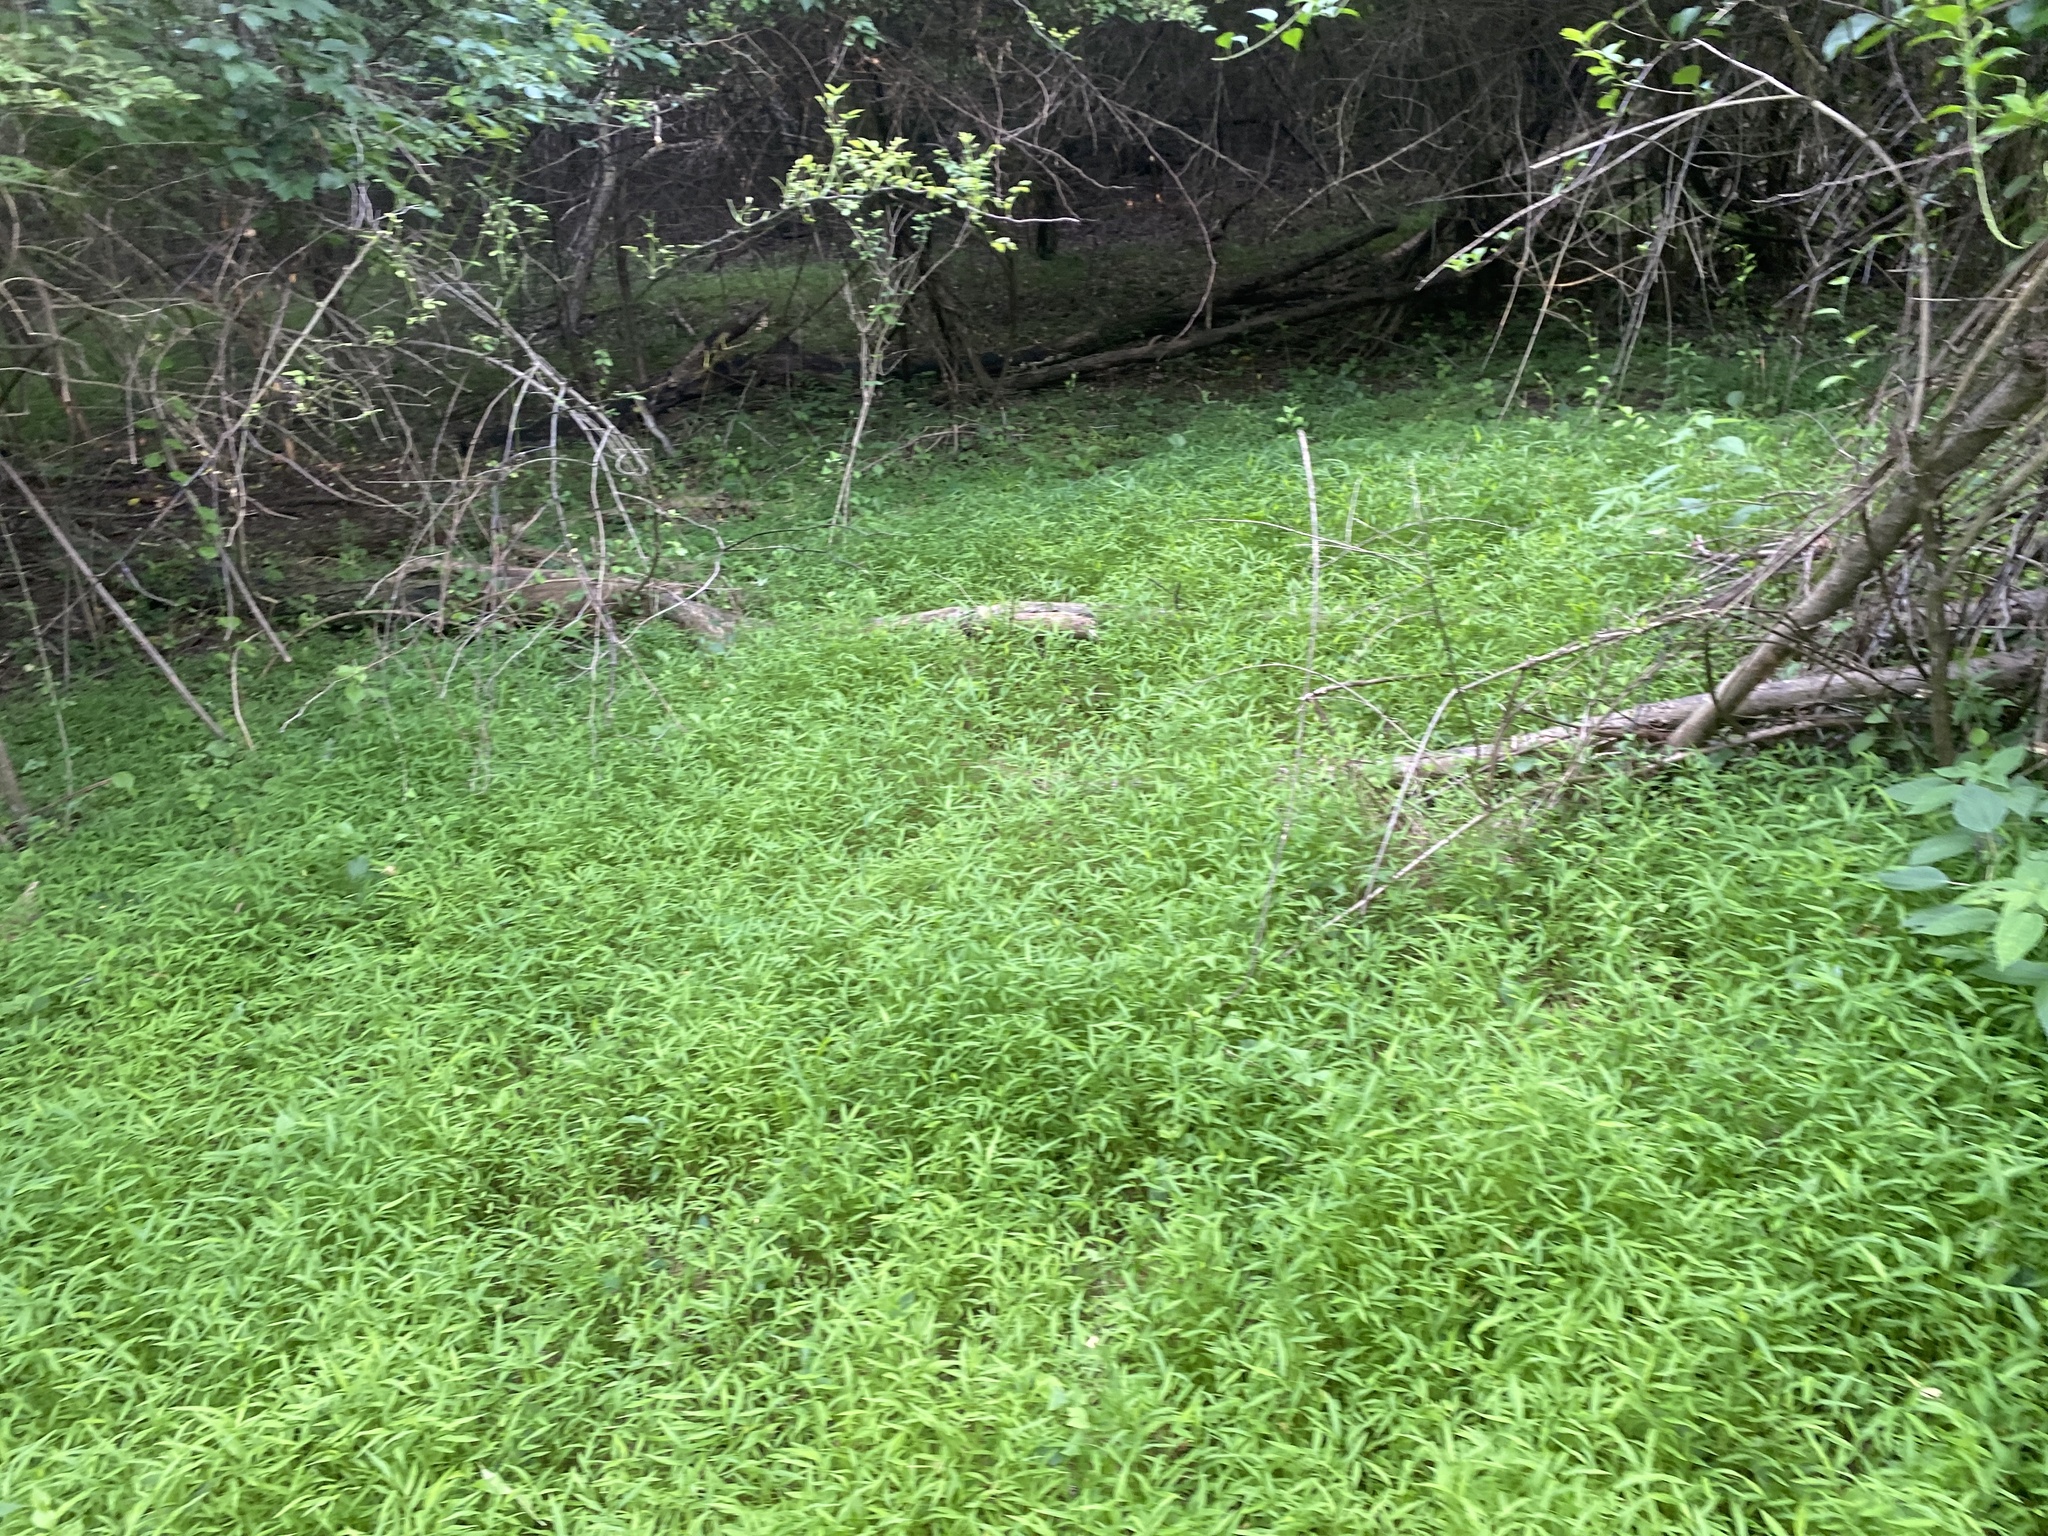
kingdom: Plantae
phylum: Tracheophyta
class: Liliopsida
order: Poales
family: Poaceae
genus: Microstegium
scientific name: Microstegium vimineum
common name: Japanese stiltgrass
